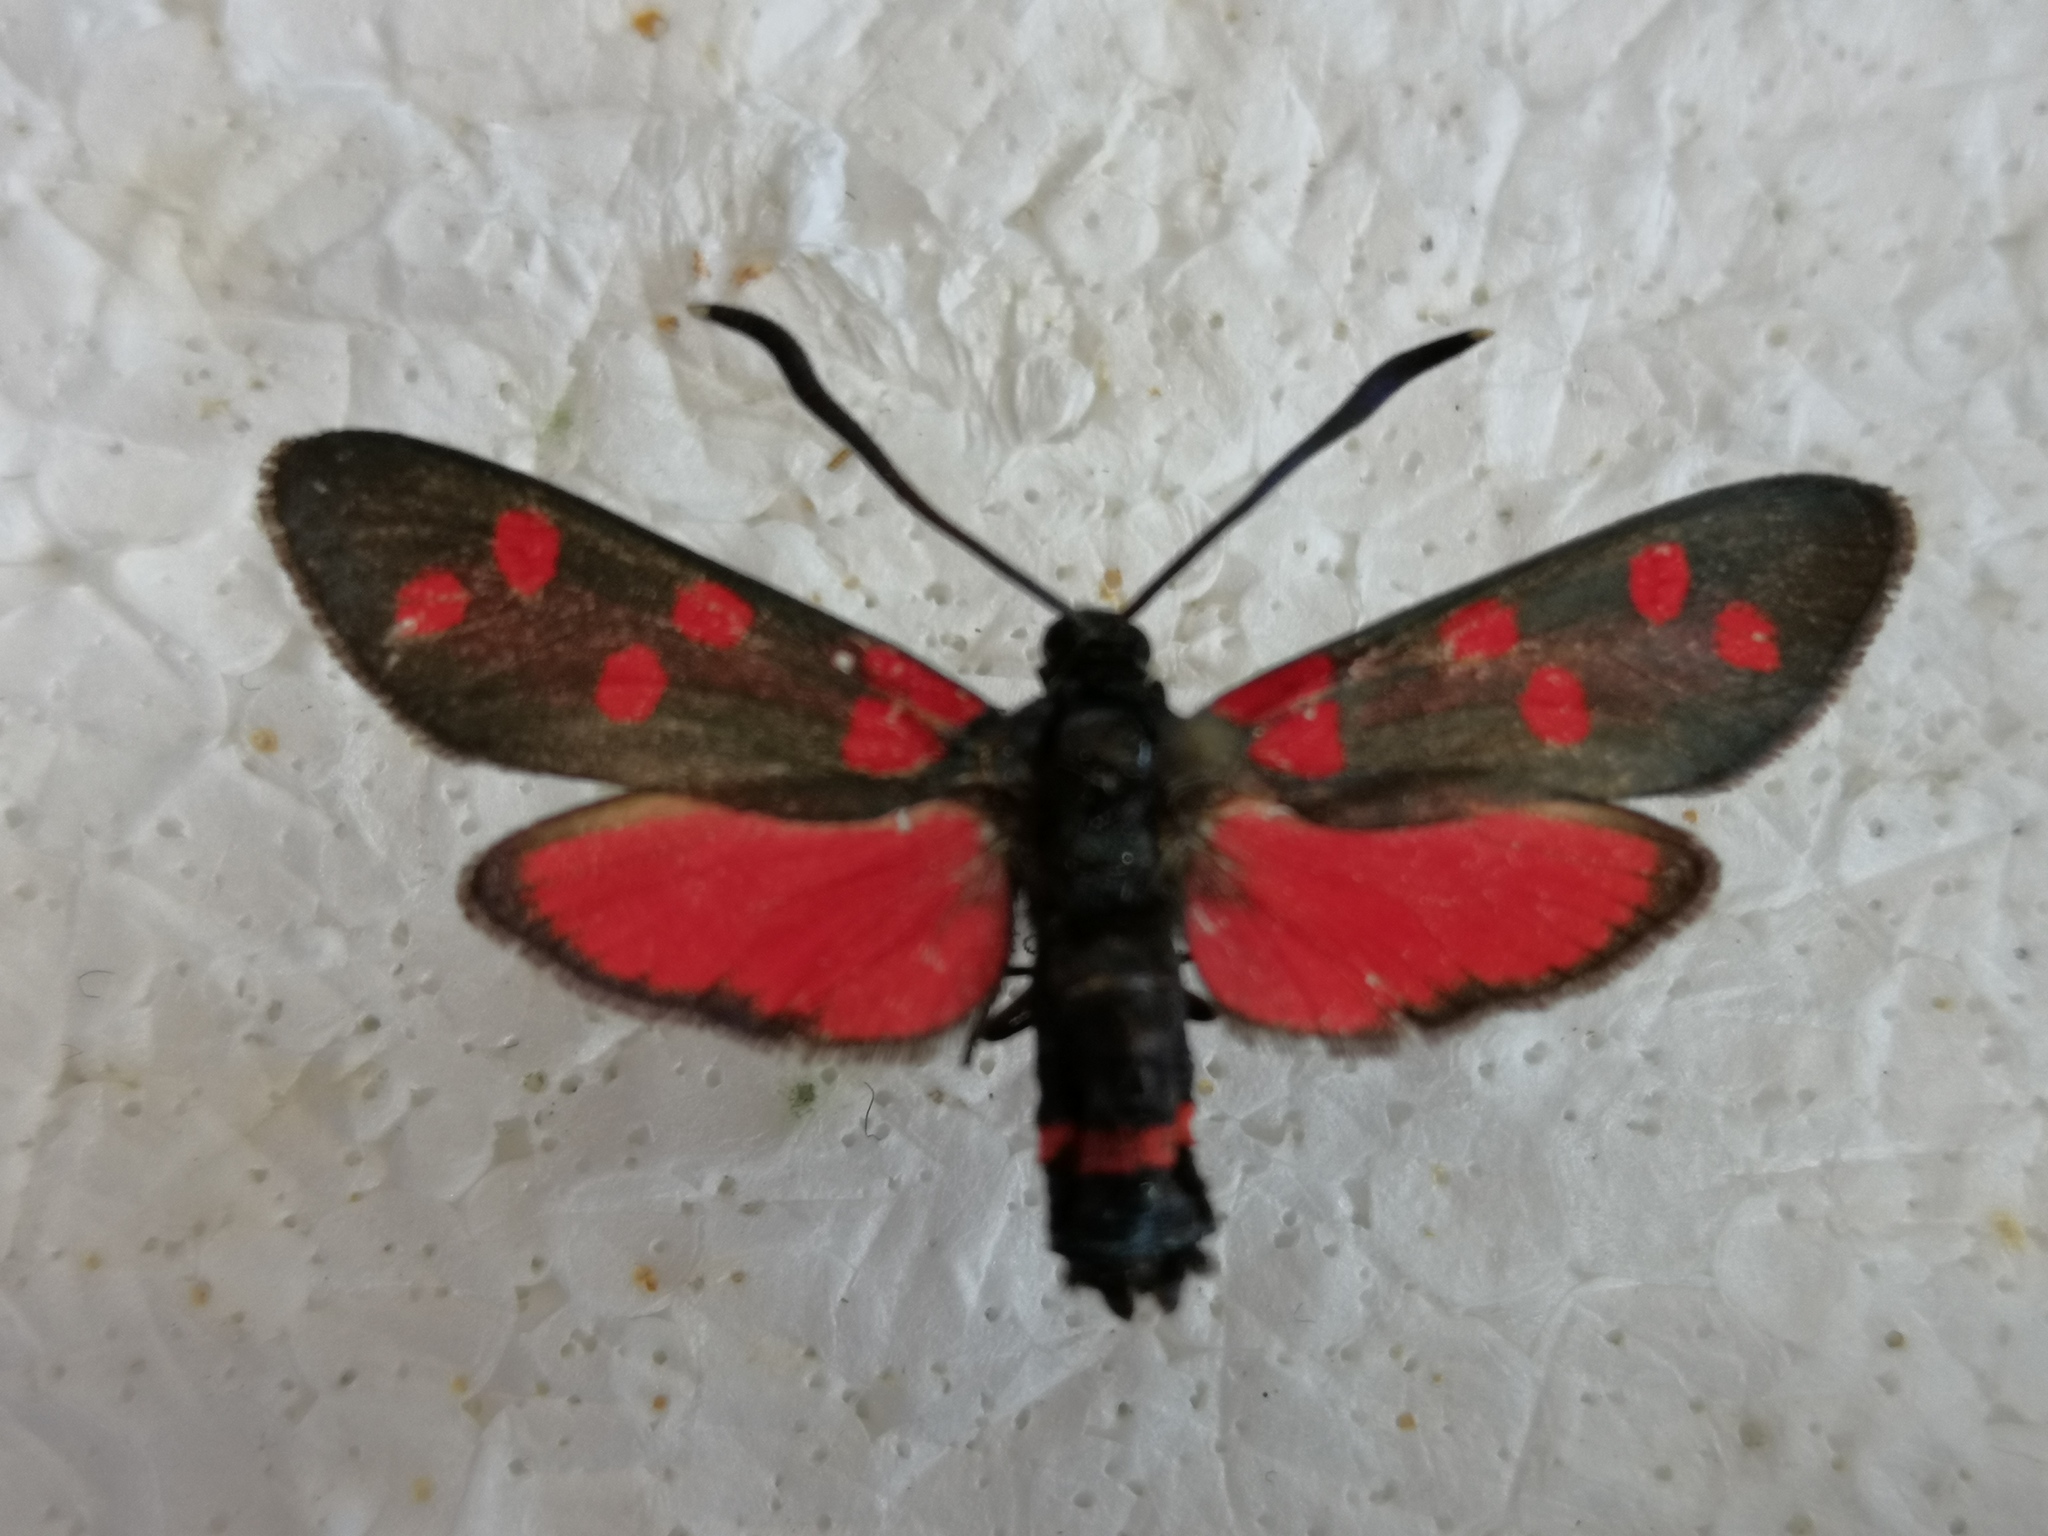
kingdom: Animalia
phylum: Arthropoda
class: Insecta
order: Lepidoptera
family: Zygaenidae
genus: Zygaena
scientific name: Zygaena dorycnii
